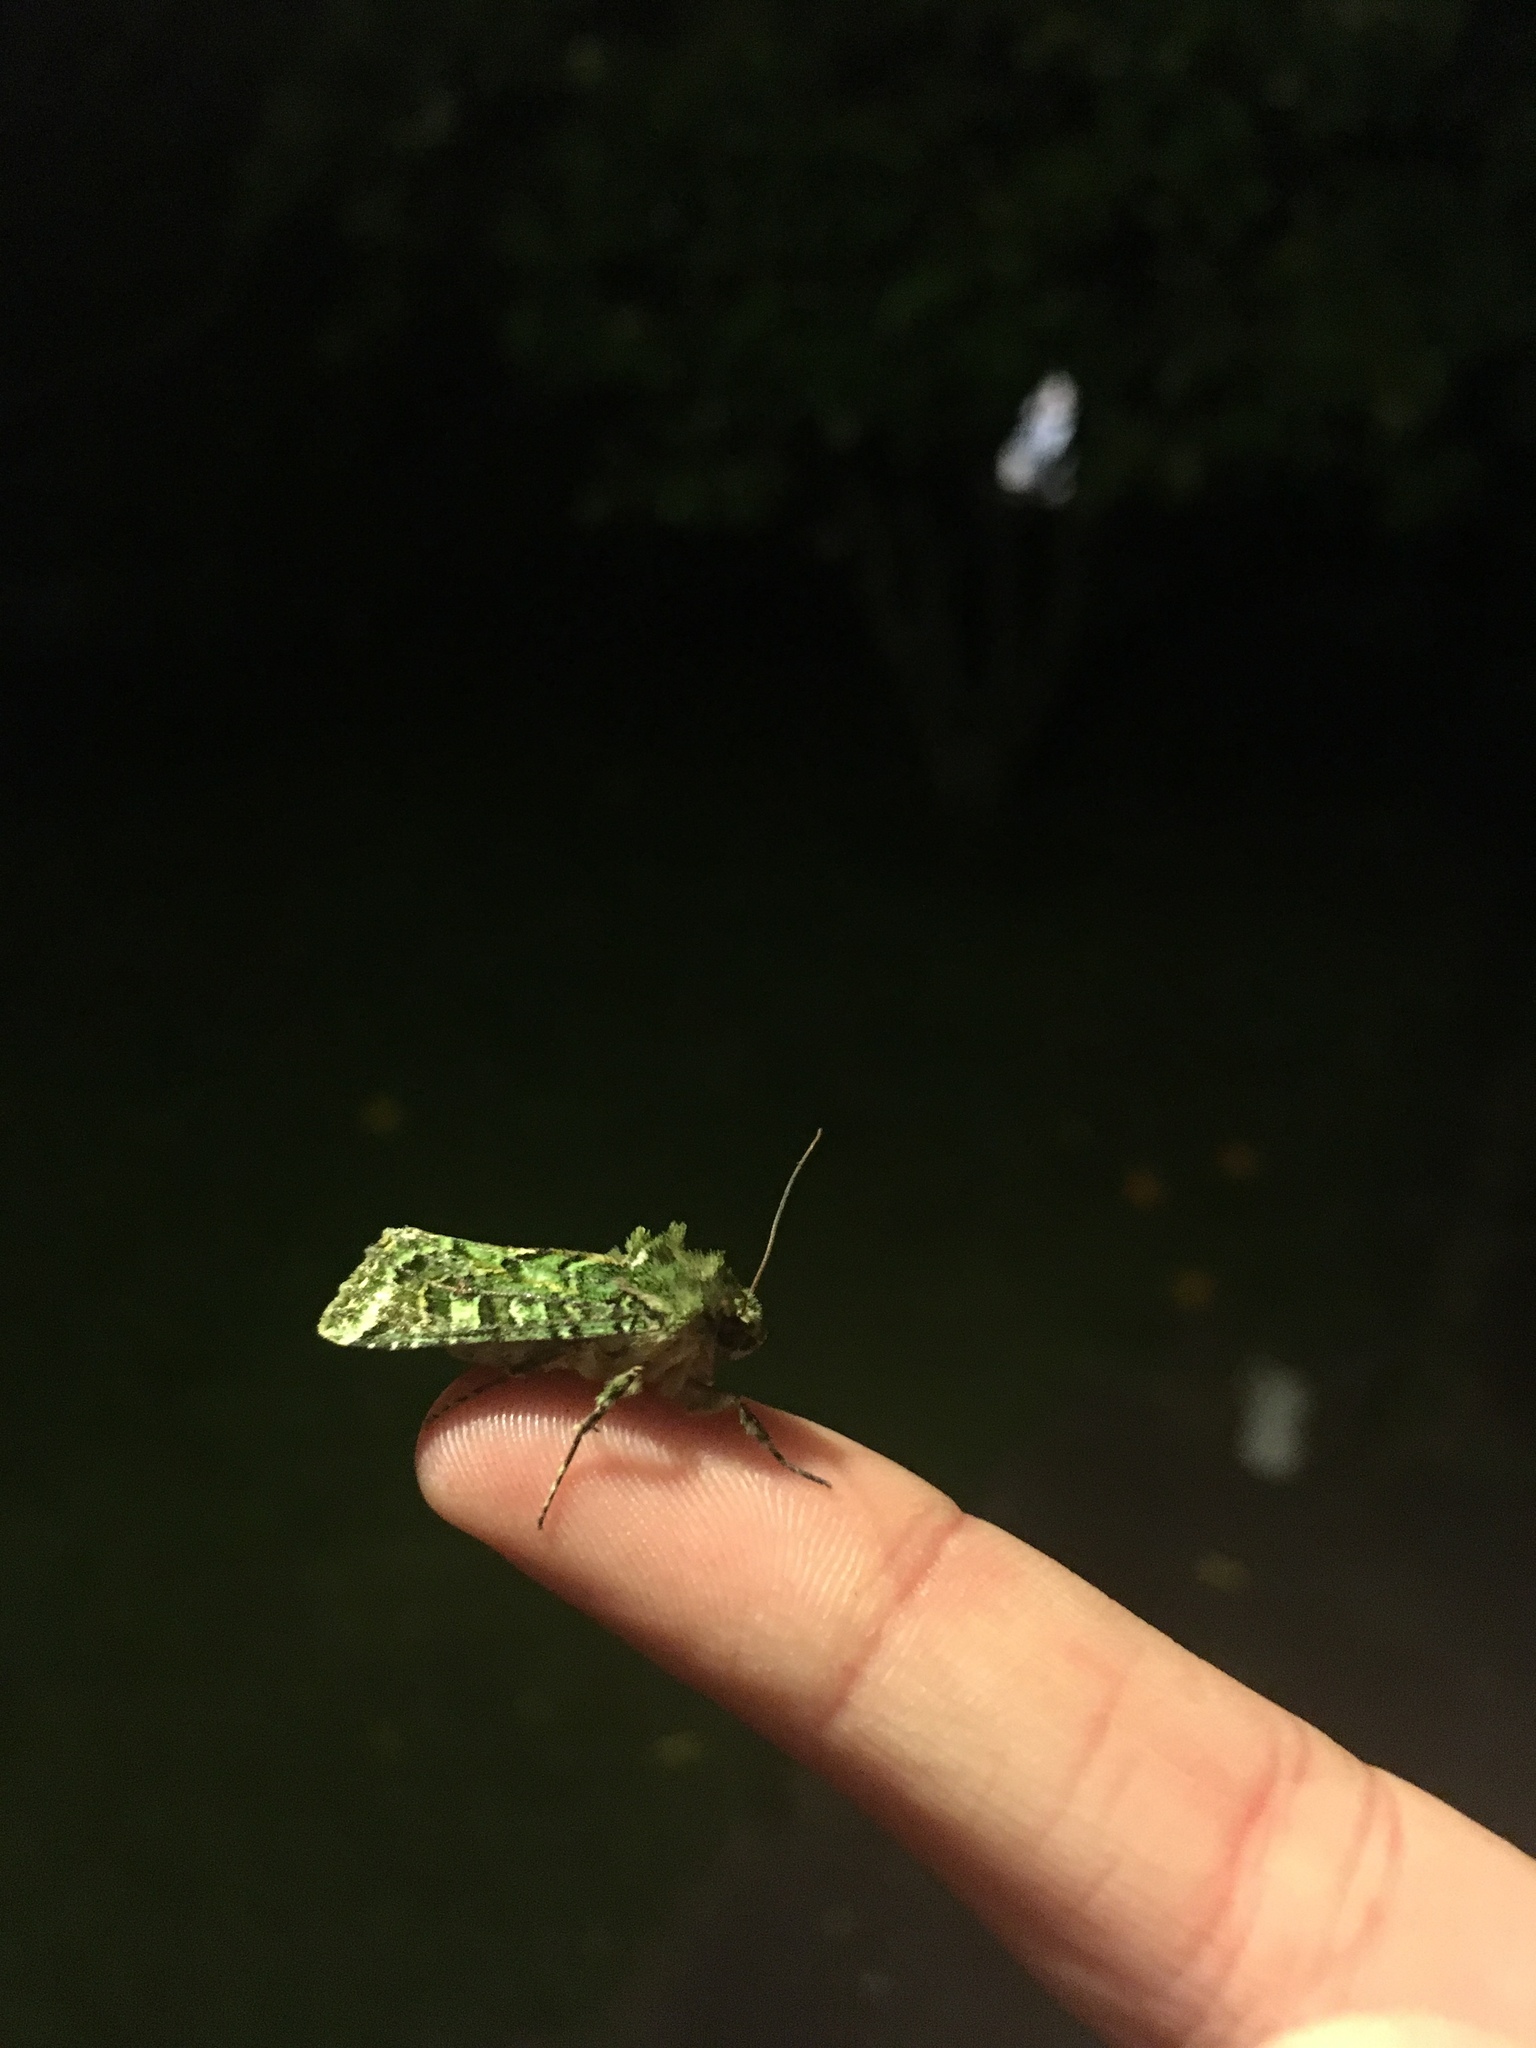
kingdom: Animalia
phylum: Arthropoda
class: Insecta
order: Lepidoptera
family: Noctuidae
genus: Feredayia
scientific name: Feredayia grammosa
